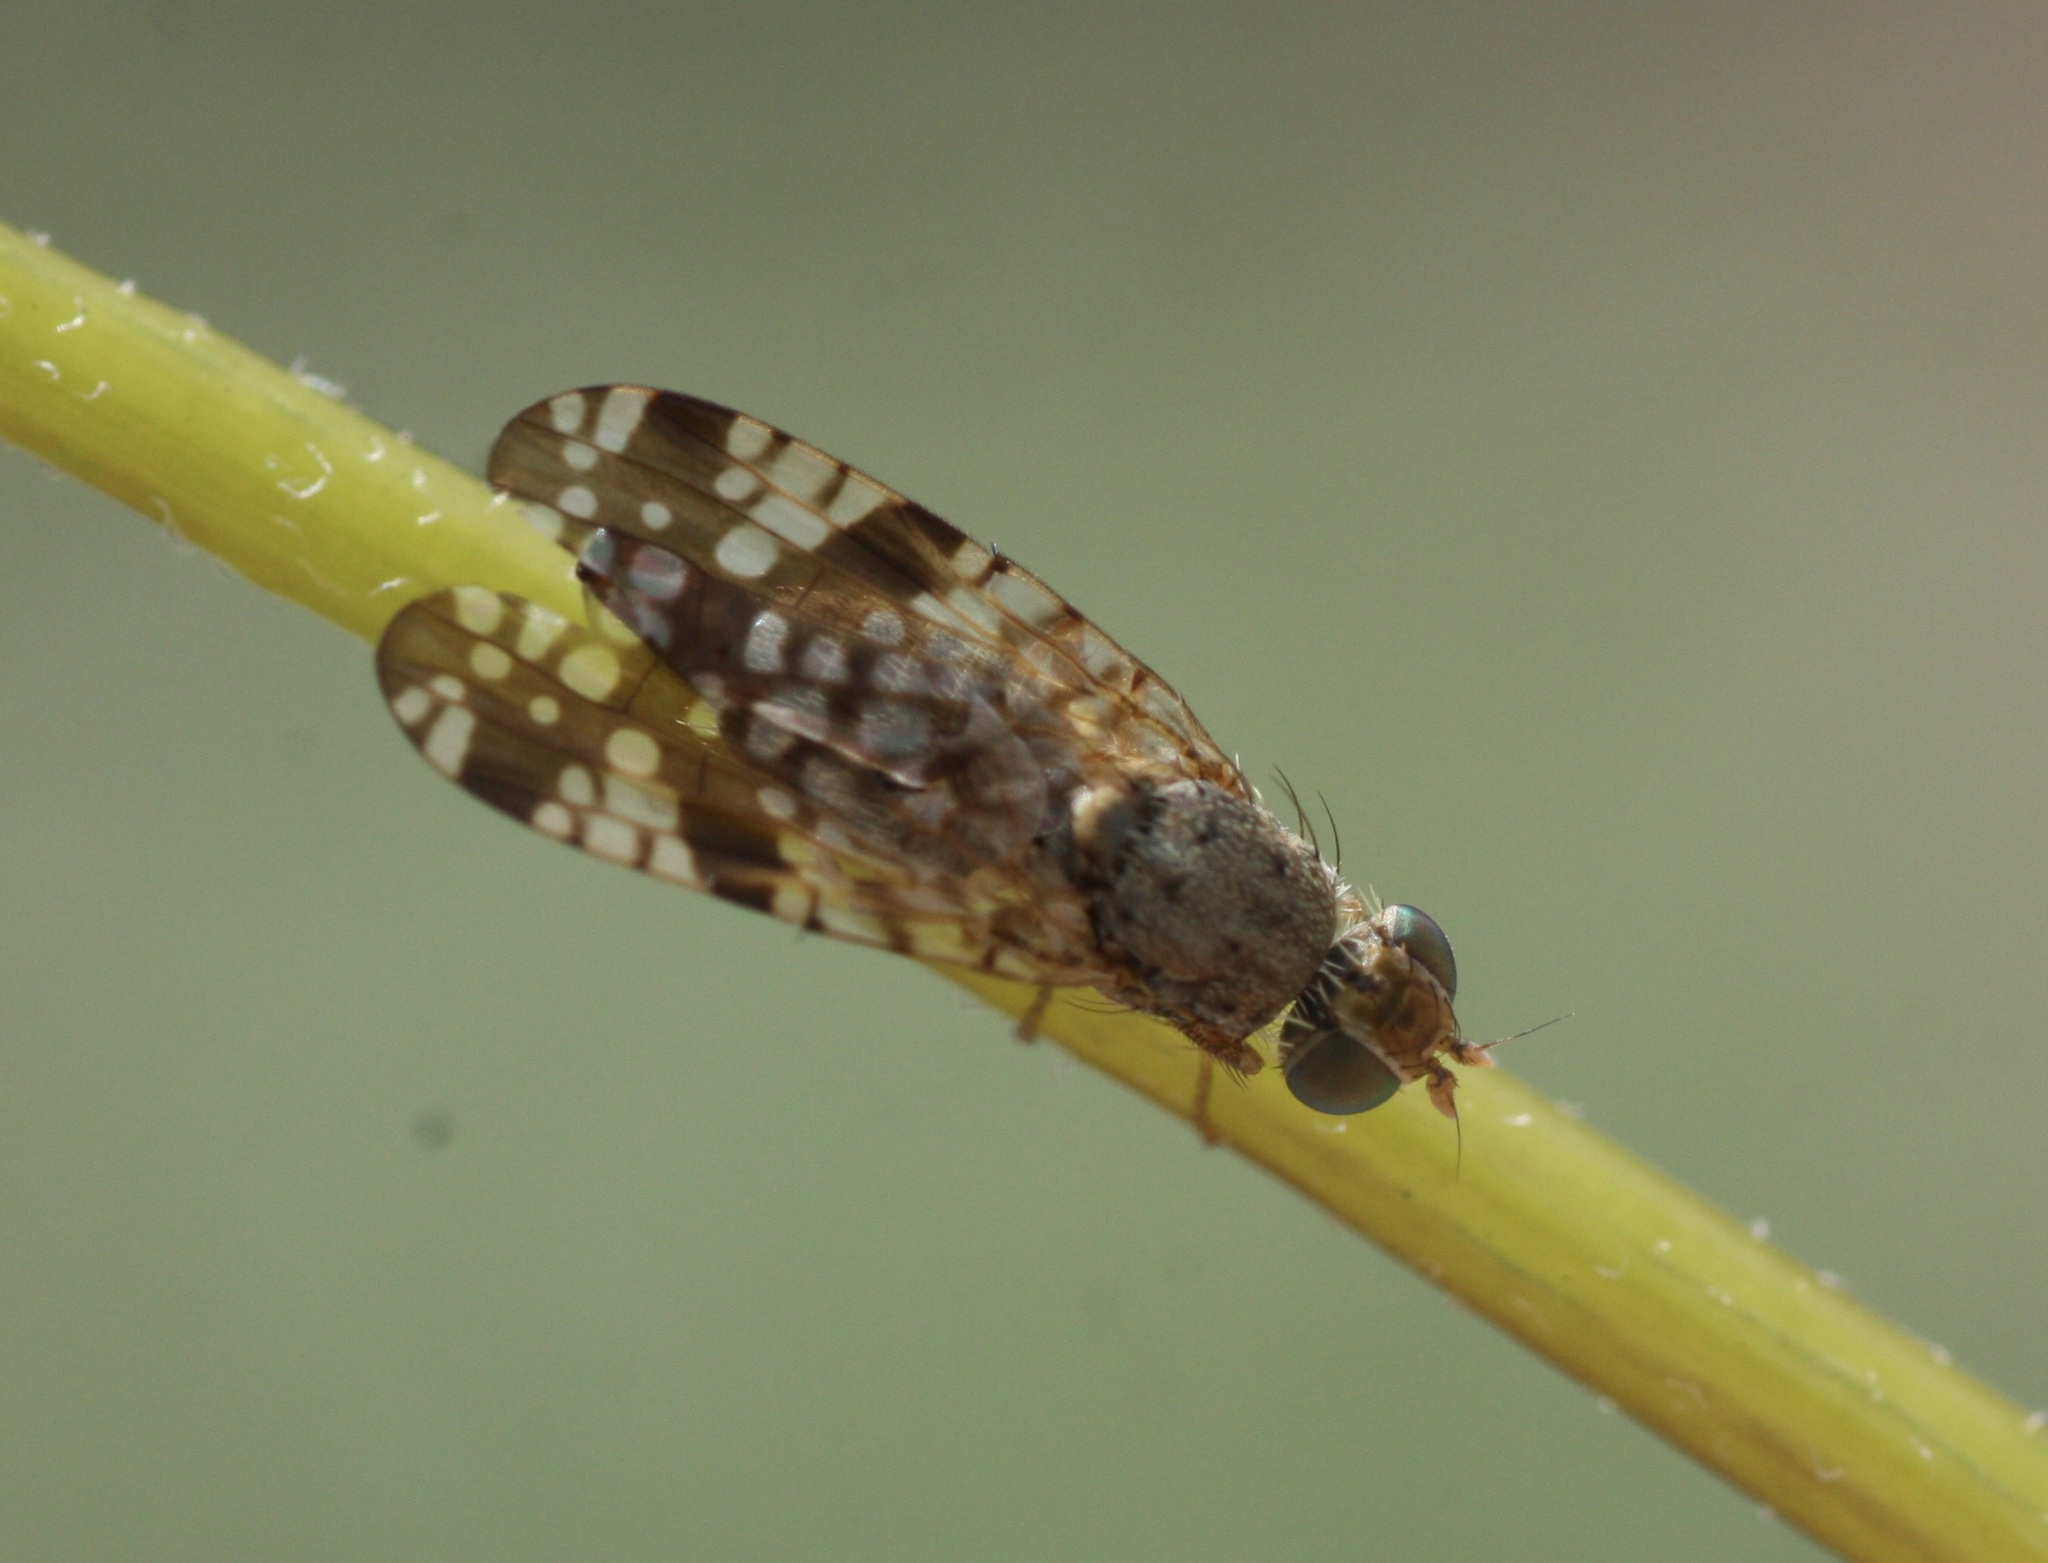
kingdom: Animalia
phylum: Arthropoda
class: Insecta
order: Diptera
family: Tephritidae
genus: Neotephritis
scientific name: Neotephritis finalis
